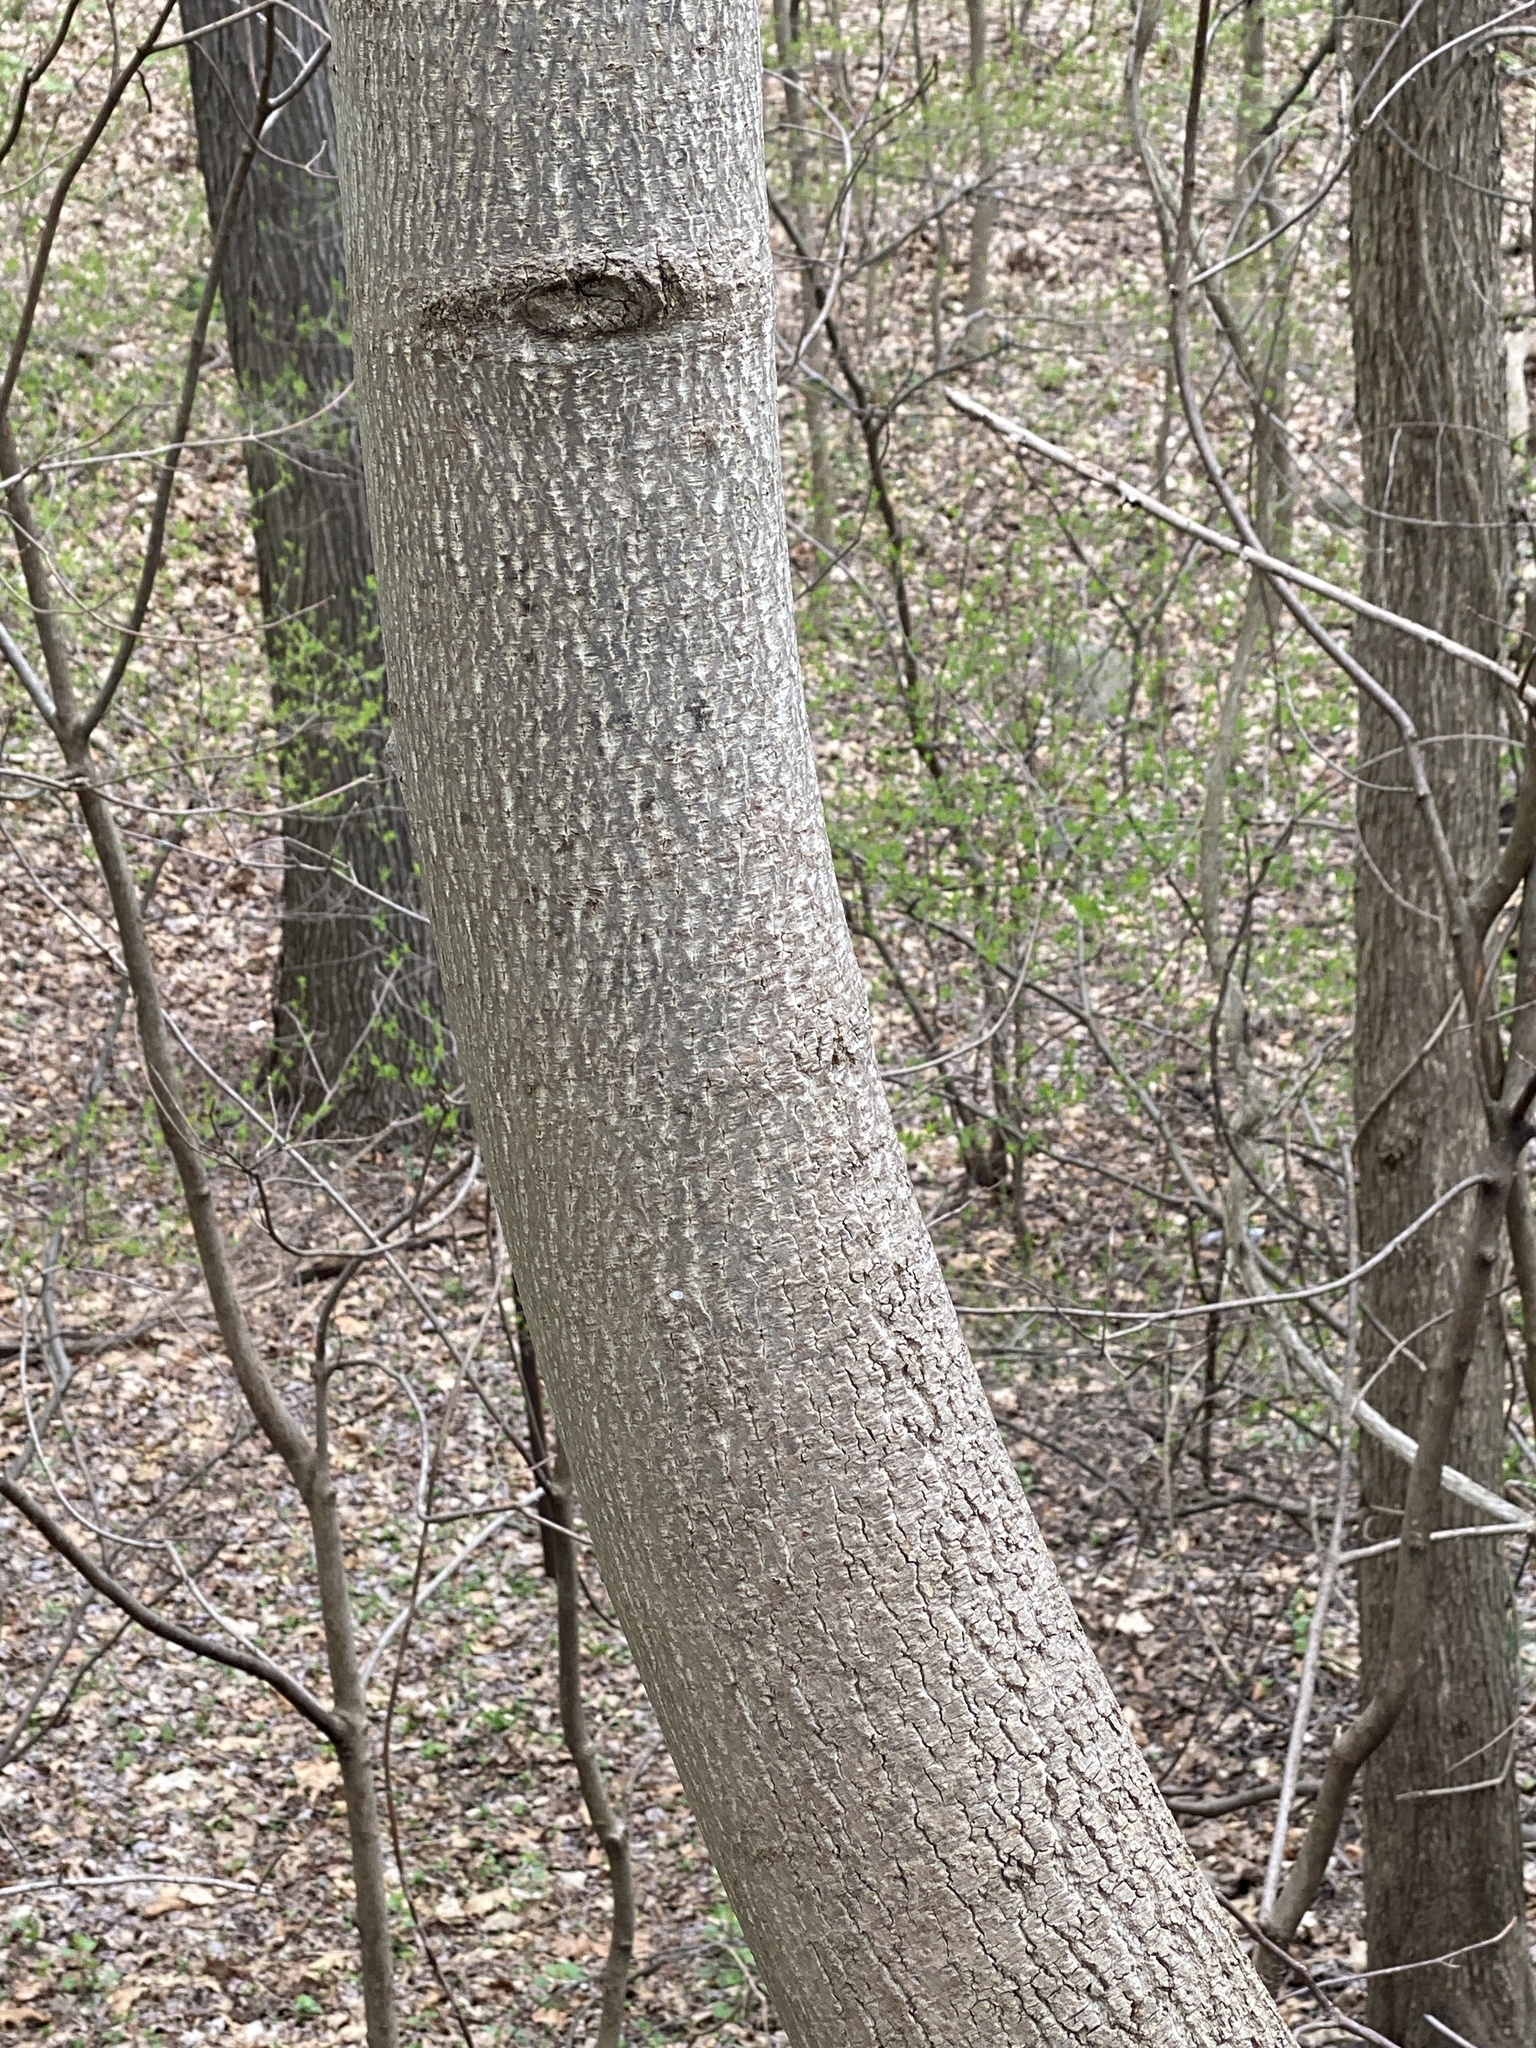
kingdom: Plantae
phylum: Tracheophyta
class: Magnoliopsida
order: Magnoliales
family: Magnoliaceae
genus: Liriodendron
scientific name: Liriodendron tulipifera
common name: Tulip tree
